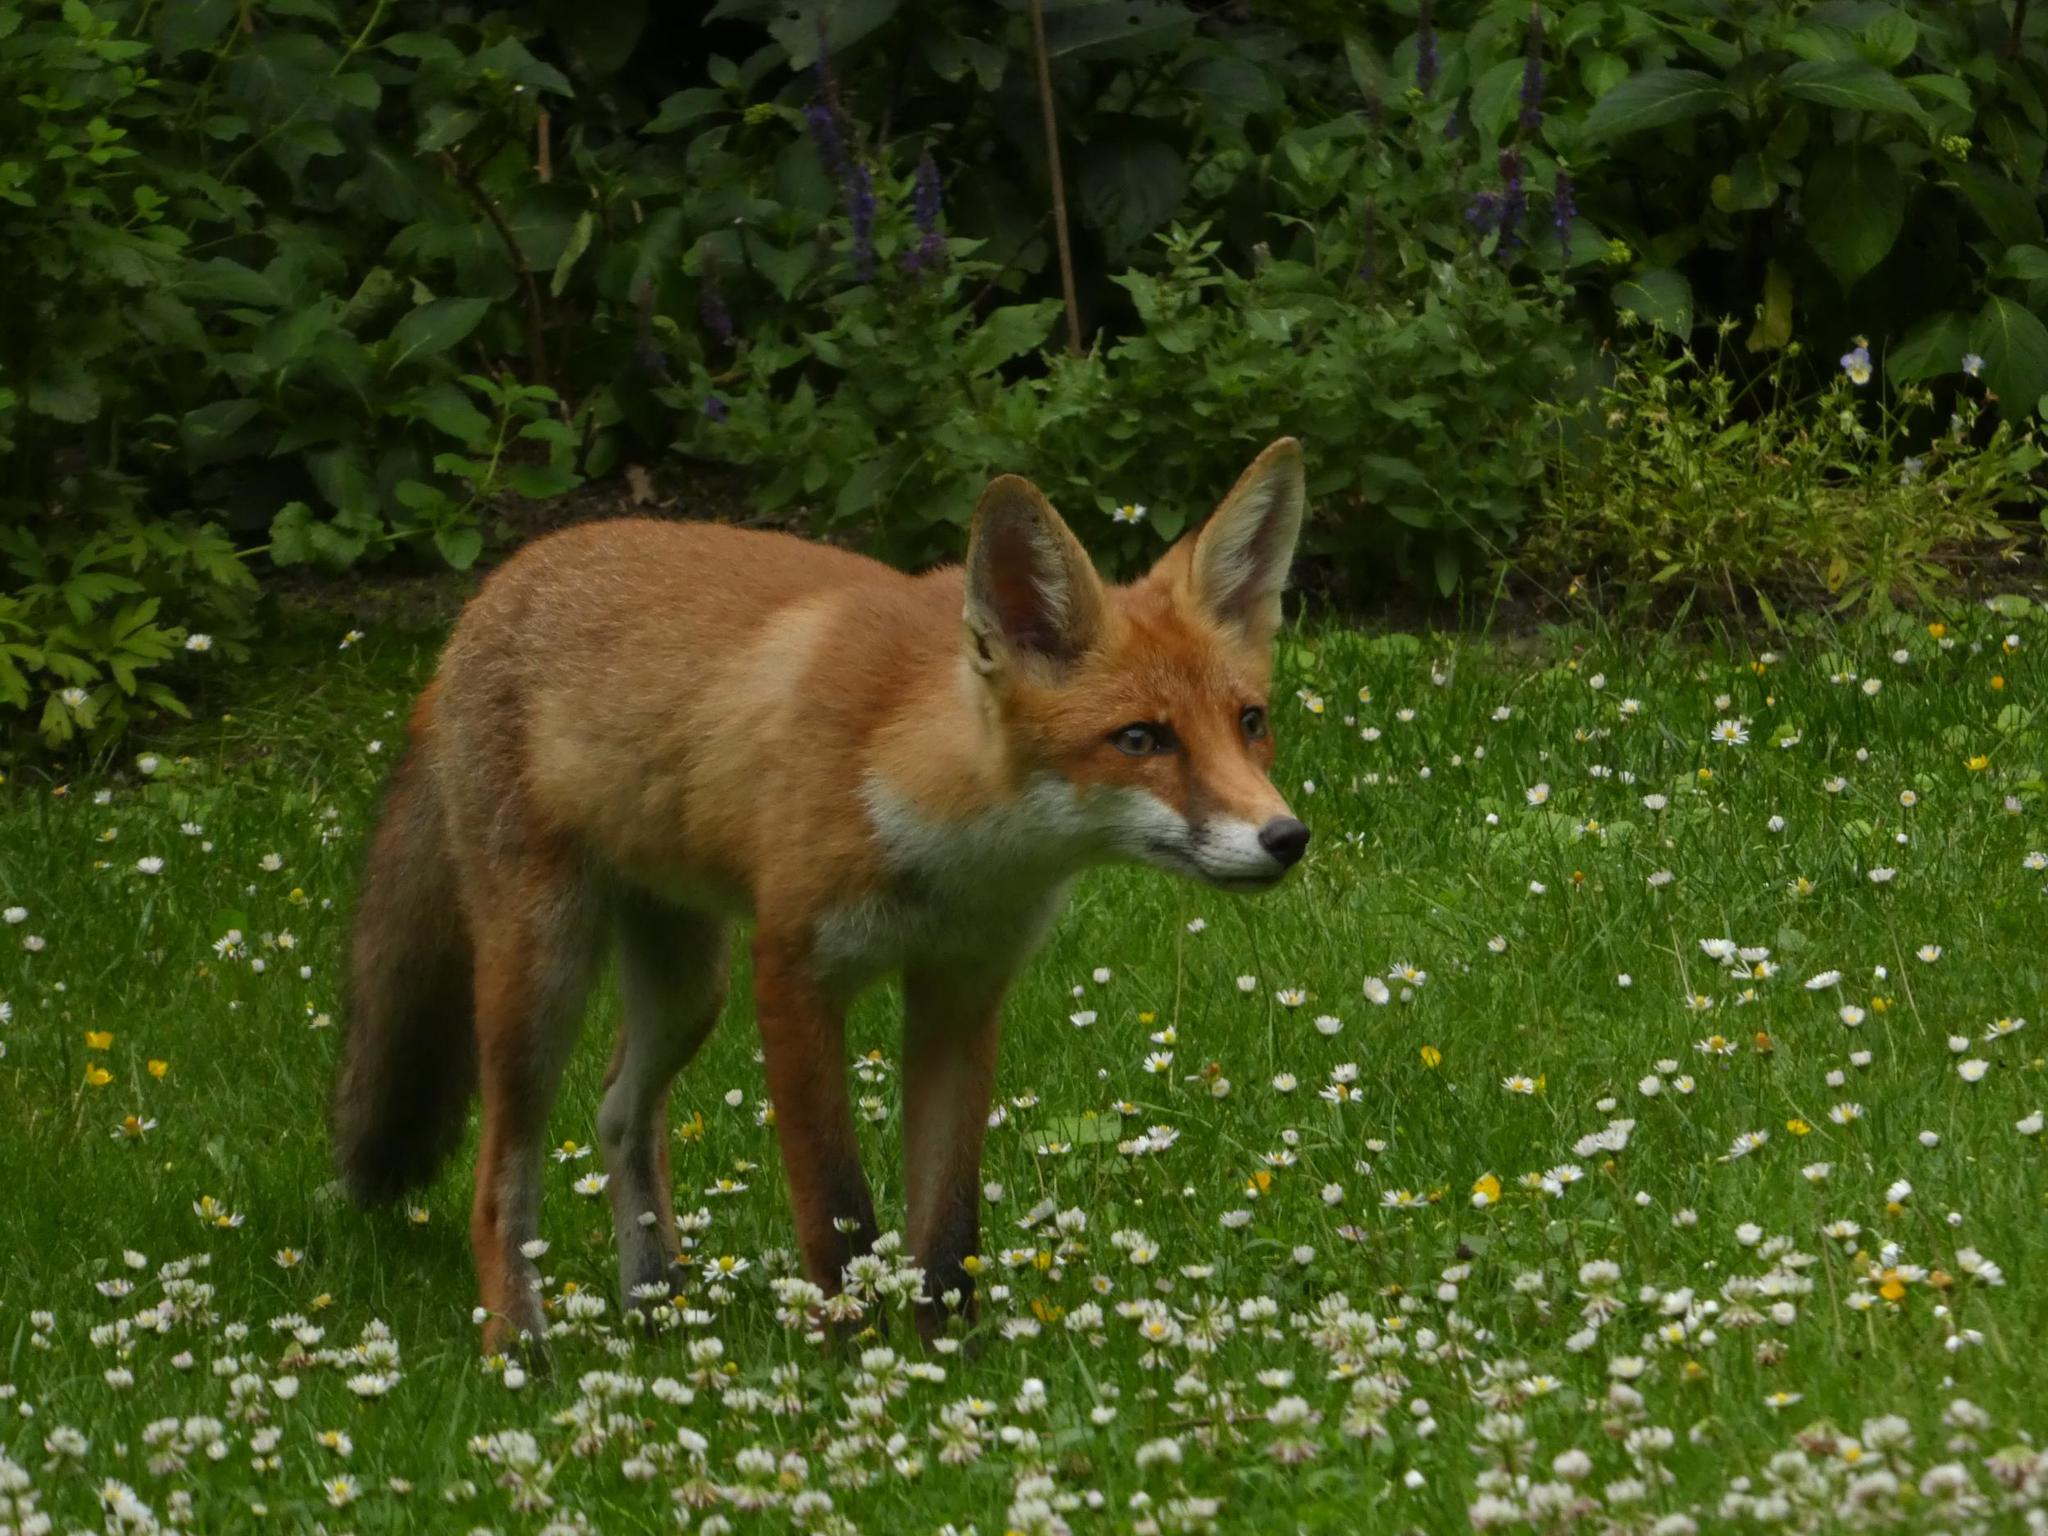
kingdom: Animalia
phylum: Chordata
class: Mammalia
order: Carnivora
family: Canidae
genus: Vulpes
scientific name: Vulpes vulpes
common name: Red fox
